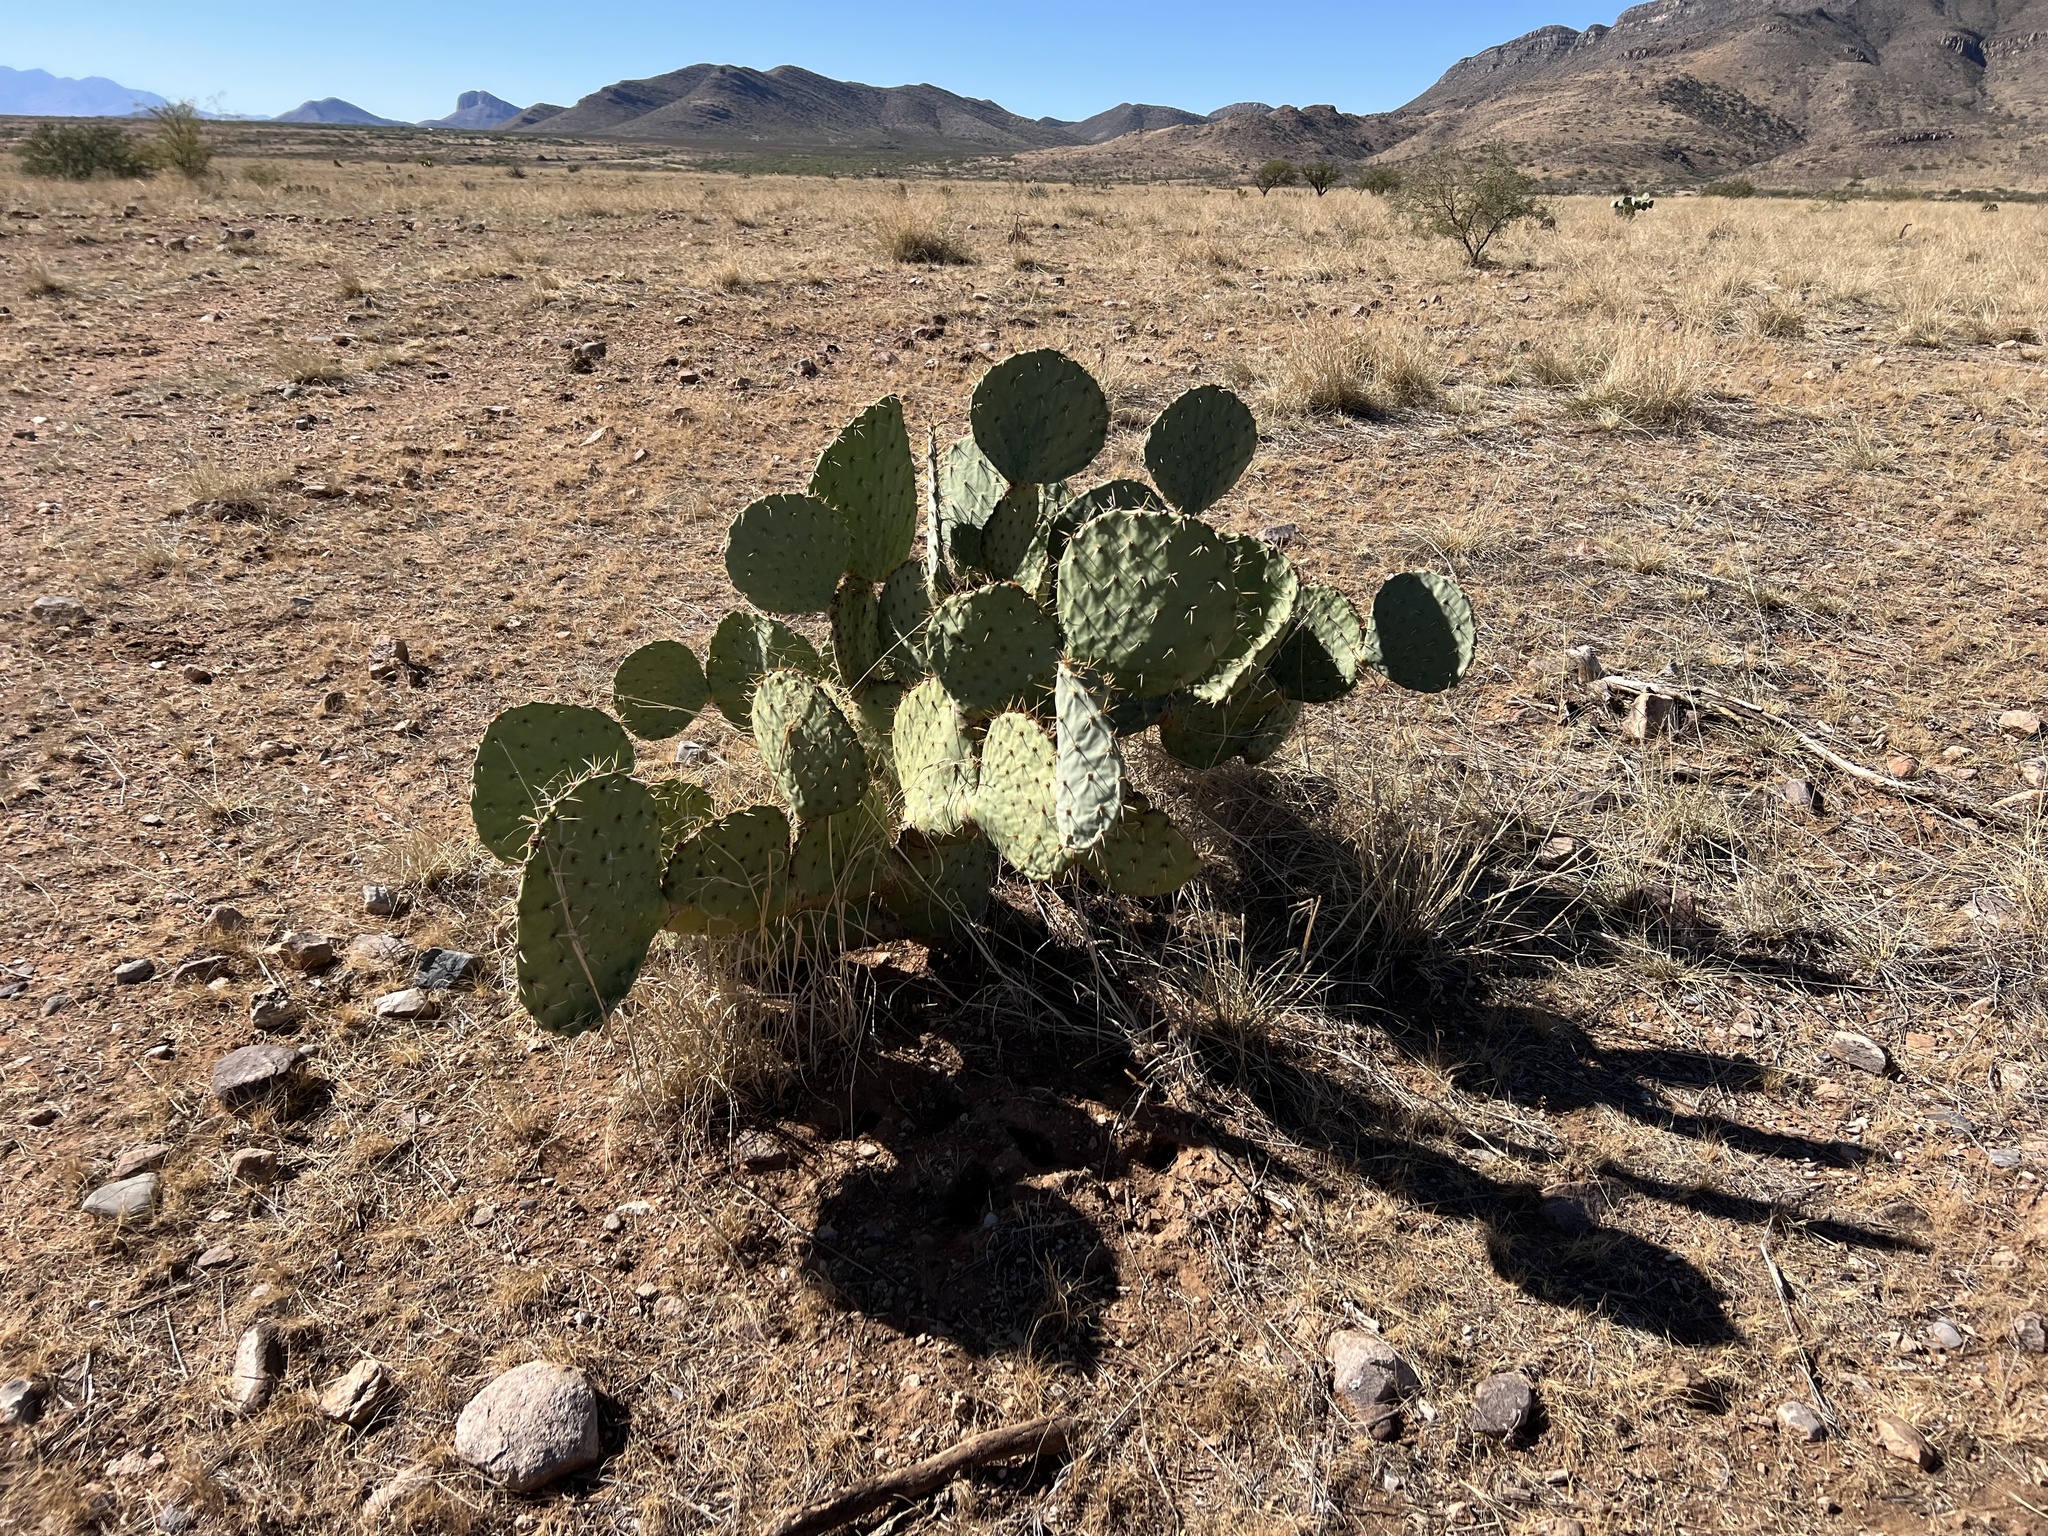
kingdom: Plantae
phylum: Tracheophyta
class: Magnoliopsida
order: Caryophyllales
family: Cactaceae
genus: Opuntia
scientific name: Opuntia engelmannii
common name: Cactus-apple
